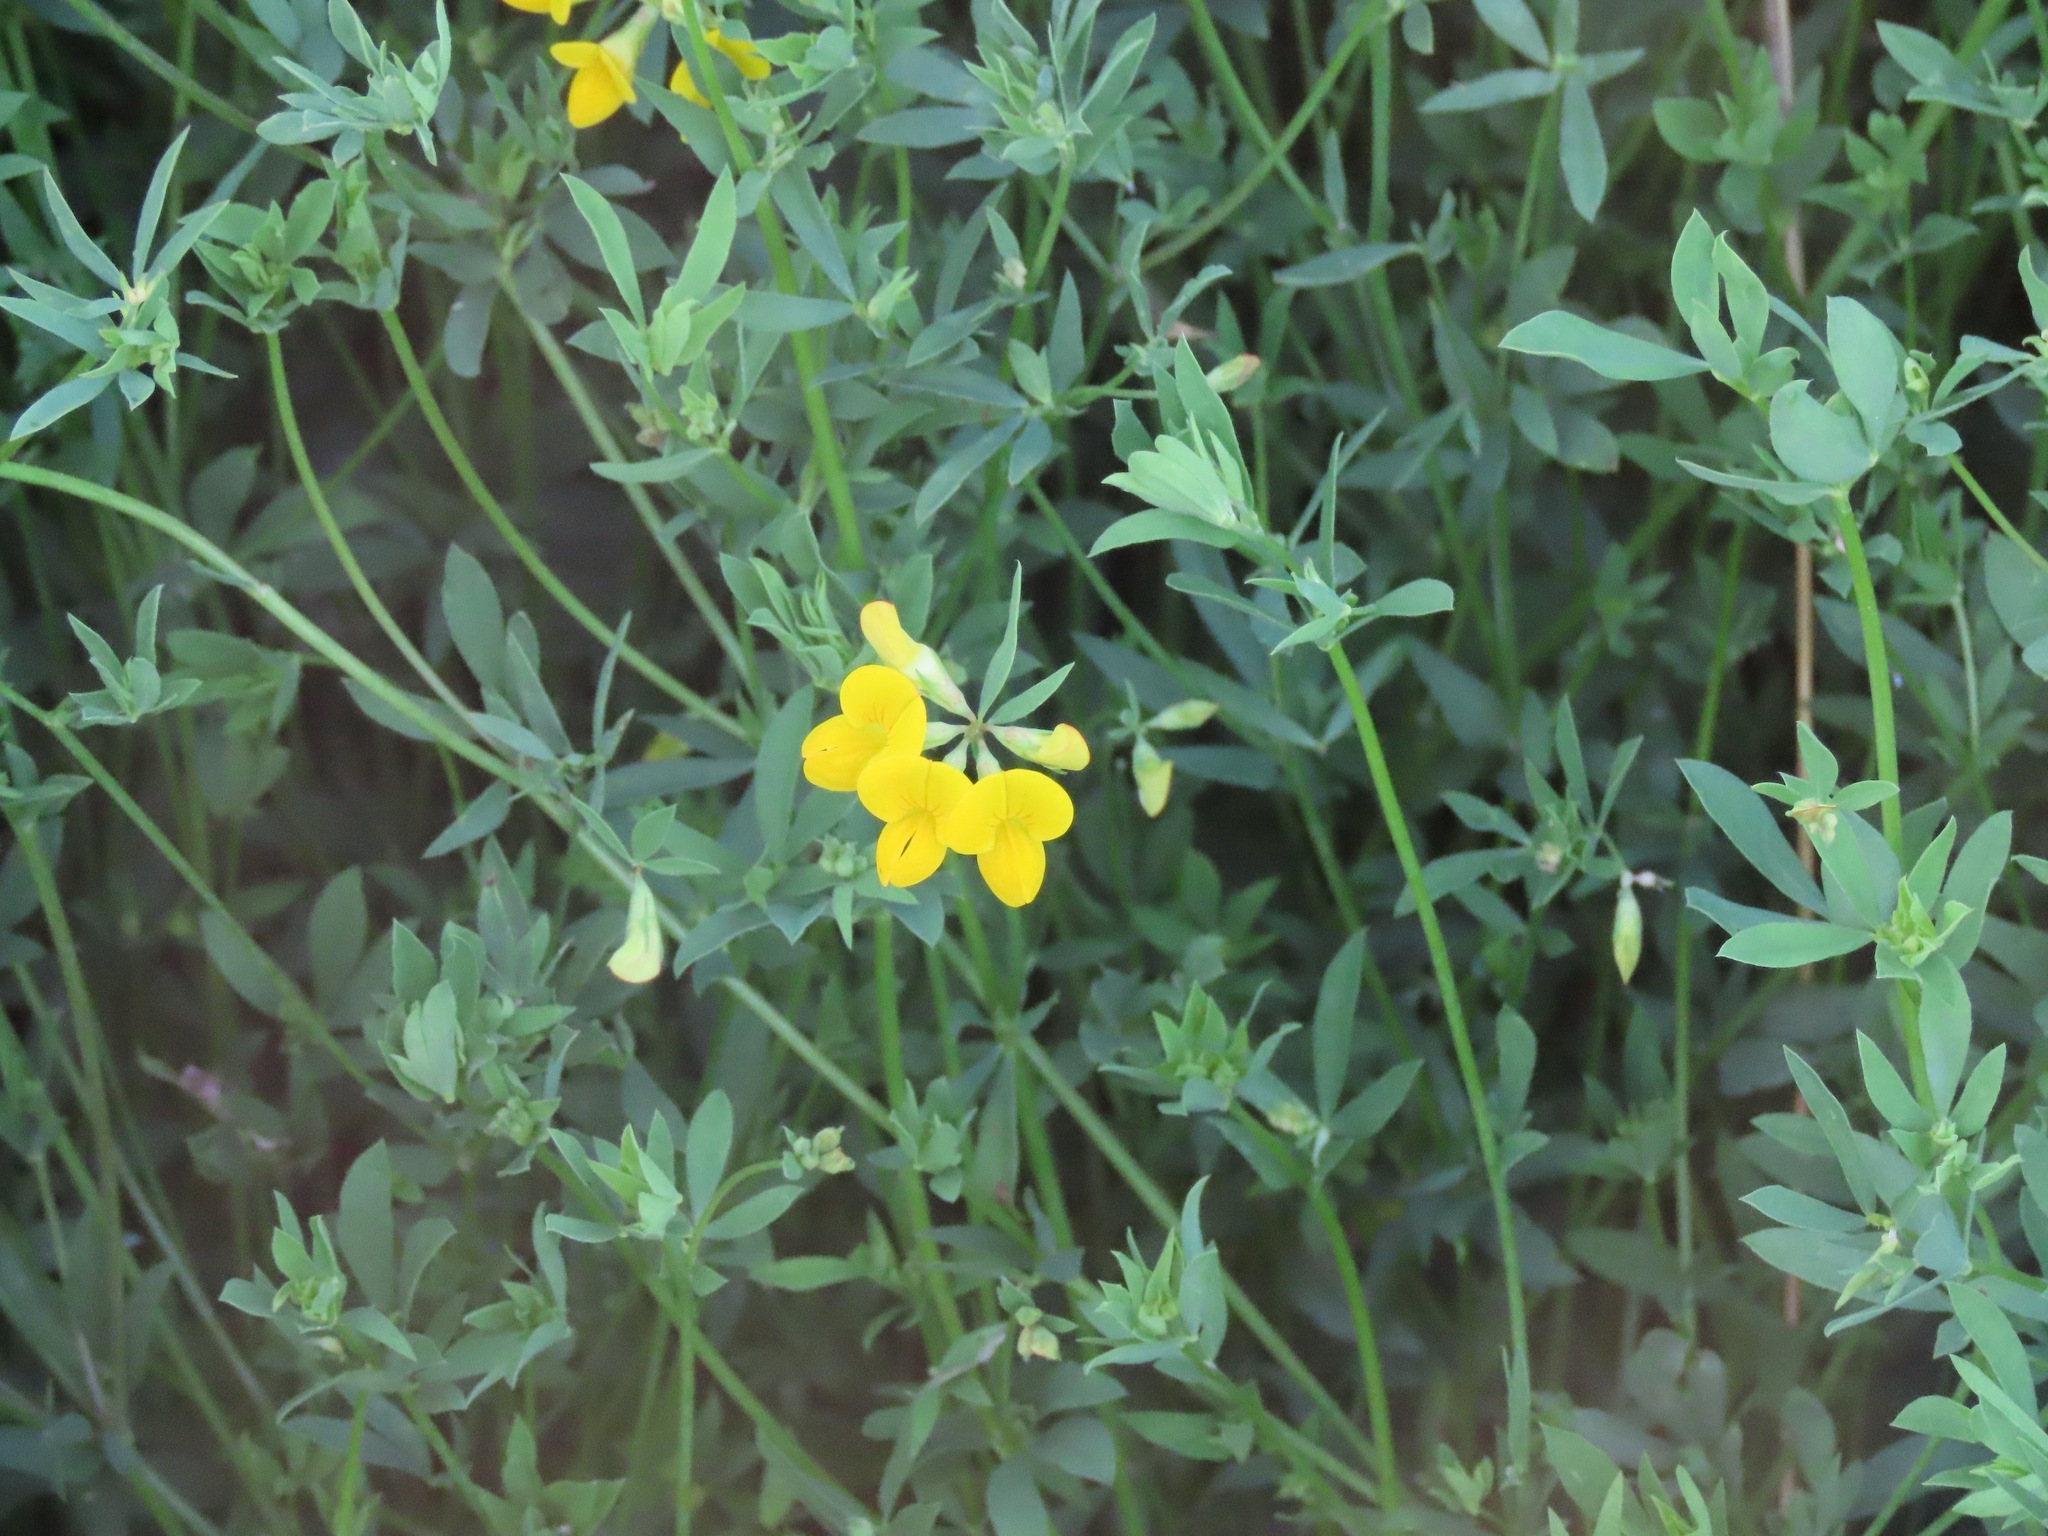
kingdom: Plantae
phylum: Tracheophyta
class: Magnoliopsida
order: Fabales
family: Fabaceae
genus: Lotus
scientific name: Lotus corniculatus
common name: Common bird's-foot-trefoil
